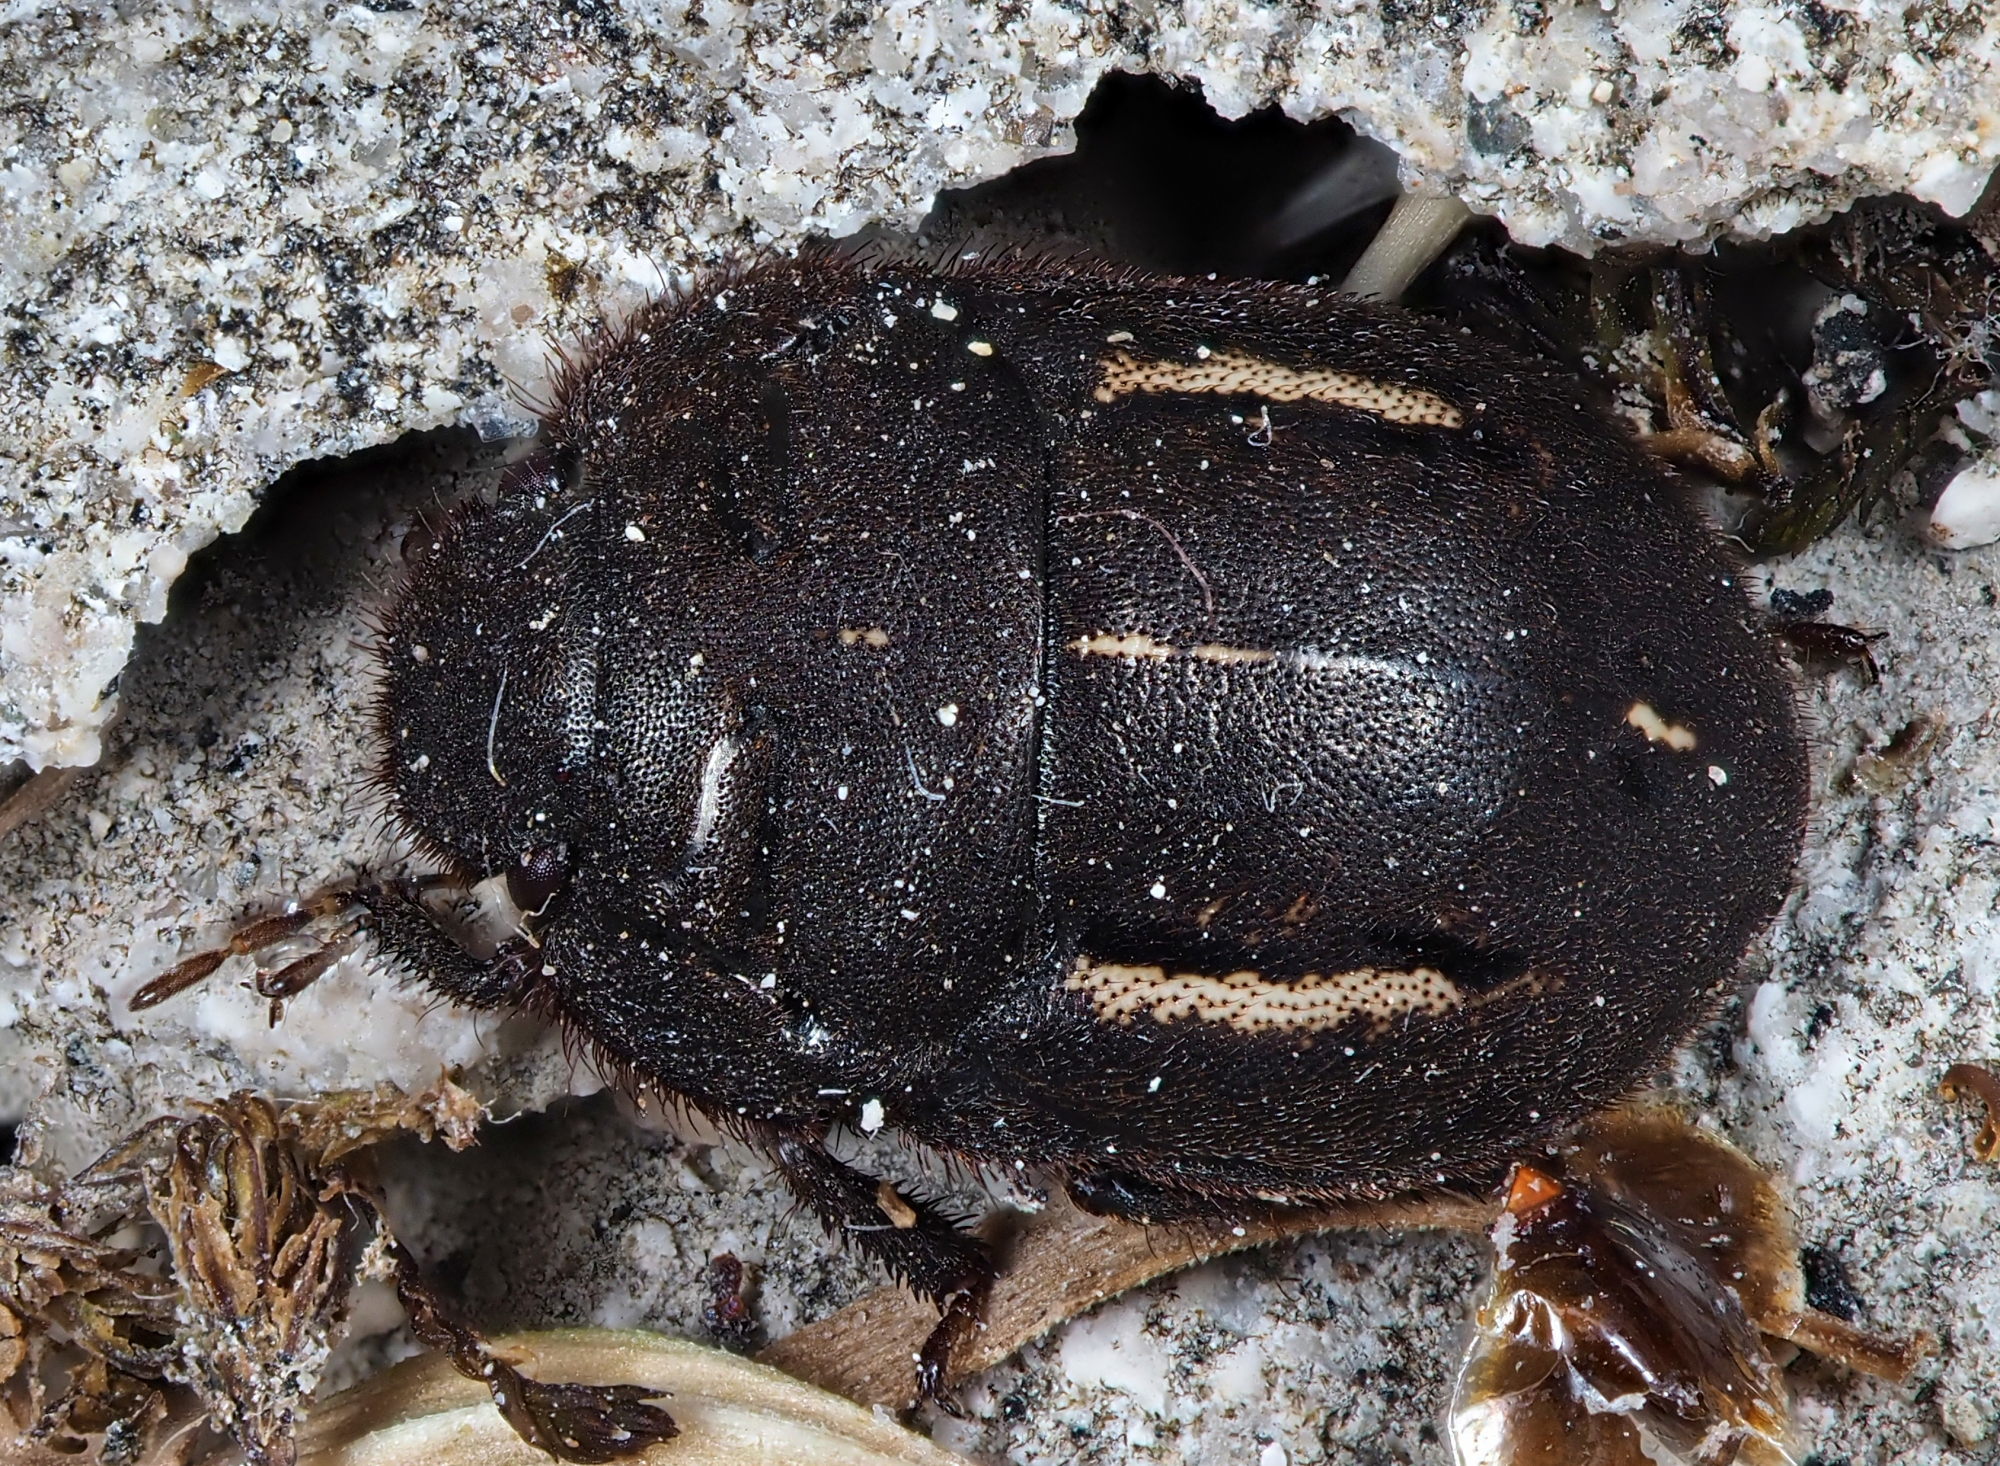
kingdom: Animalia
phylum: Arthropoda
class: Insecta
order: Hemiptera
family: Scutelleridae
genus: Odontoscelis
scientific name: Odontoscelis fuliginosa
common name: Greater streaked shieldbug
